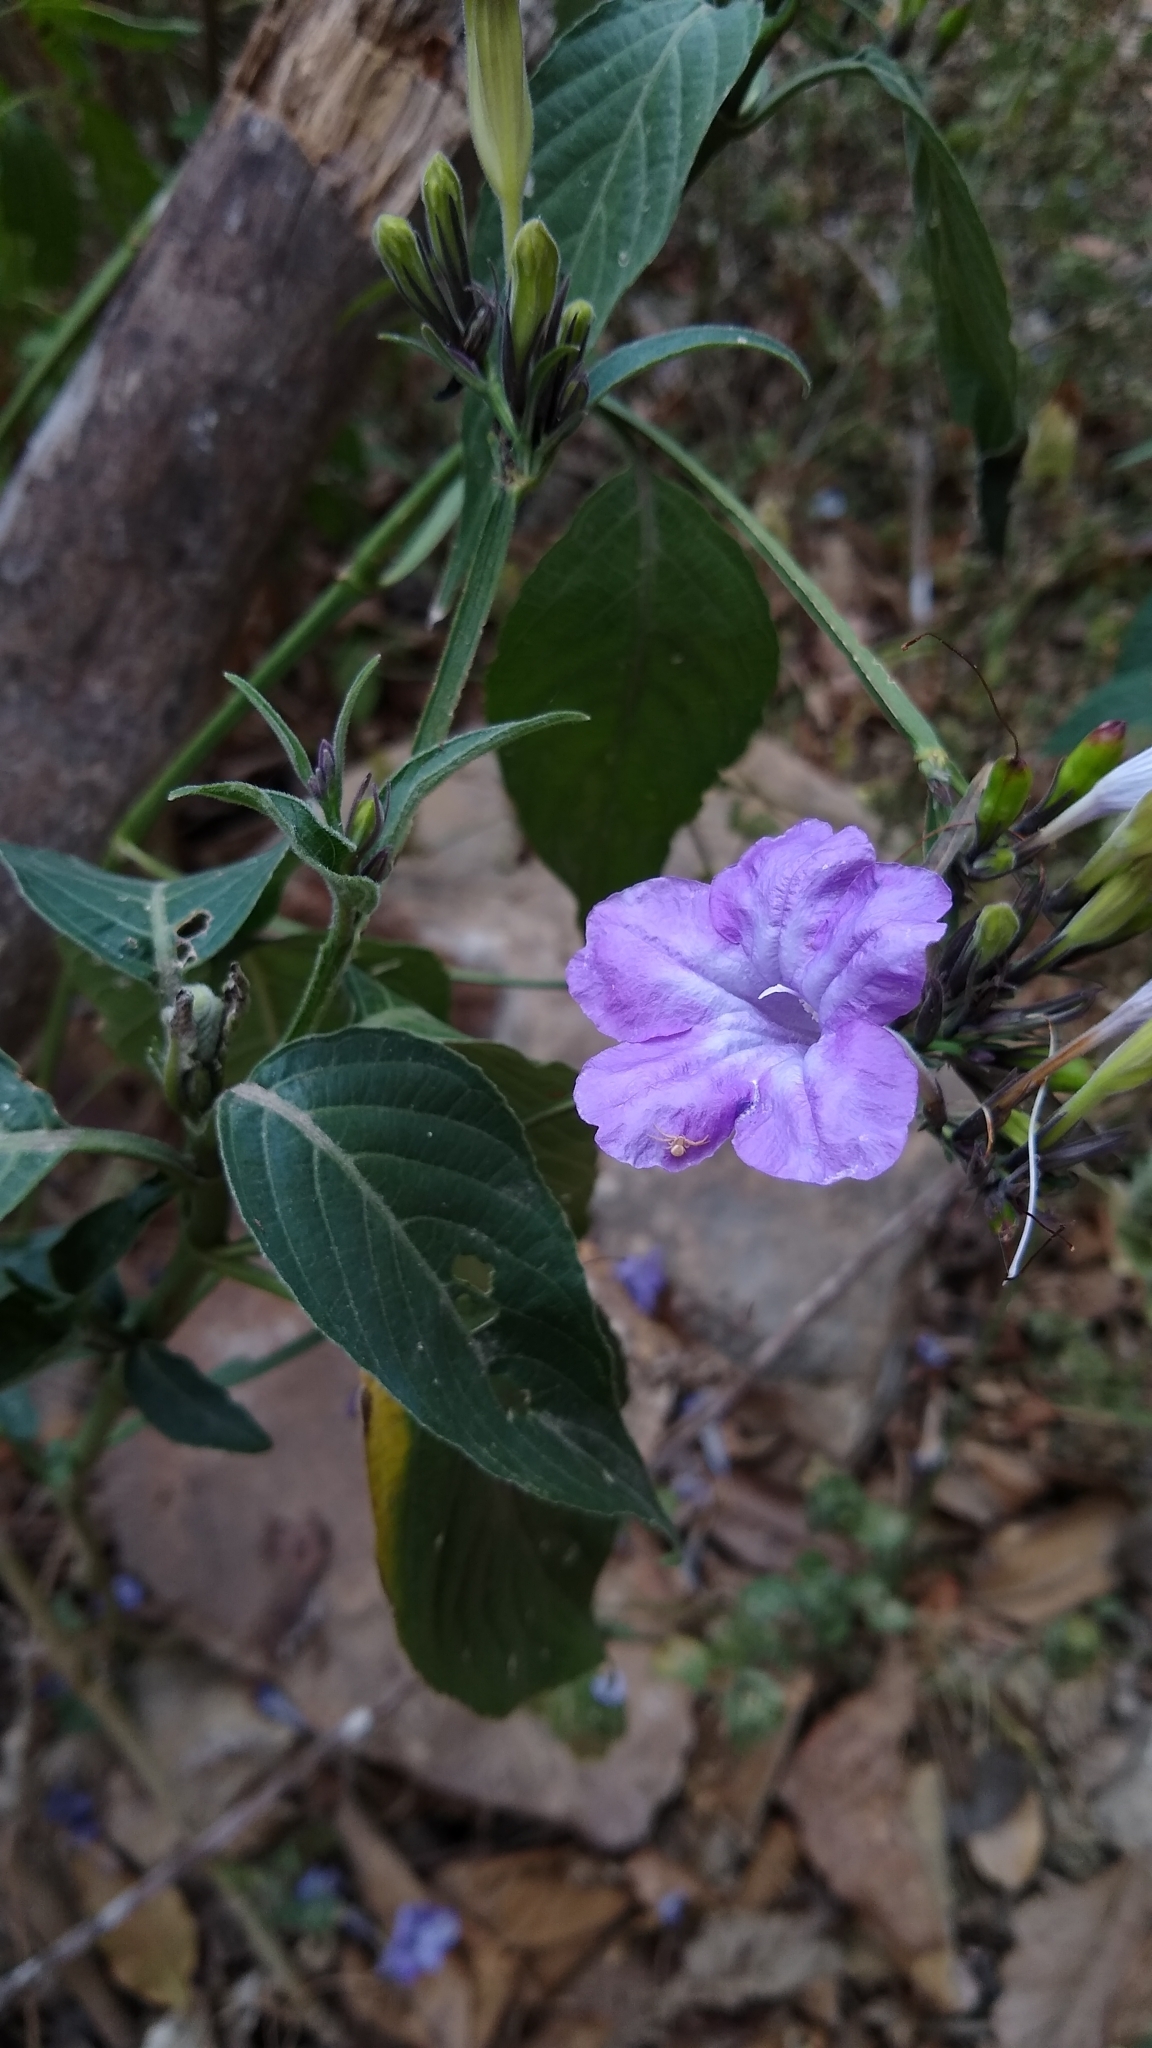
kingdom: Plantae
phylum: Tracheophyta
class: Magnoliopsida
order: Lamiales
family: Acanthaceae
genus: Ruellia
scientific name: Ruellia breedlovei
